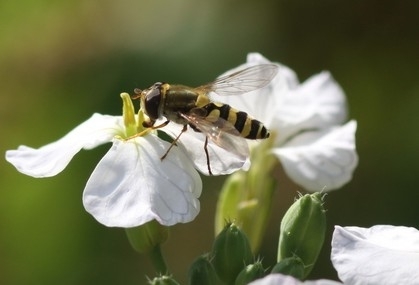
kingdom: Animalia
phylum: Arthropoda
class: Insecta
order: Diptera
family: Syrphidae
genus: Syrphus
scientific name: Syrphus
